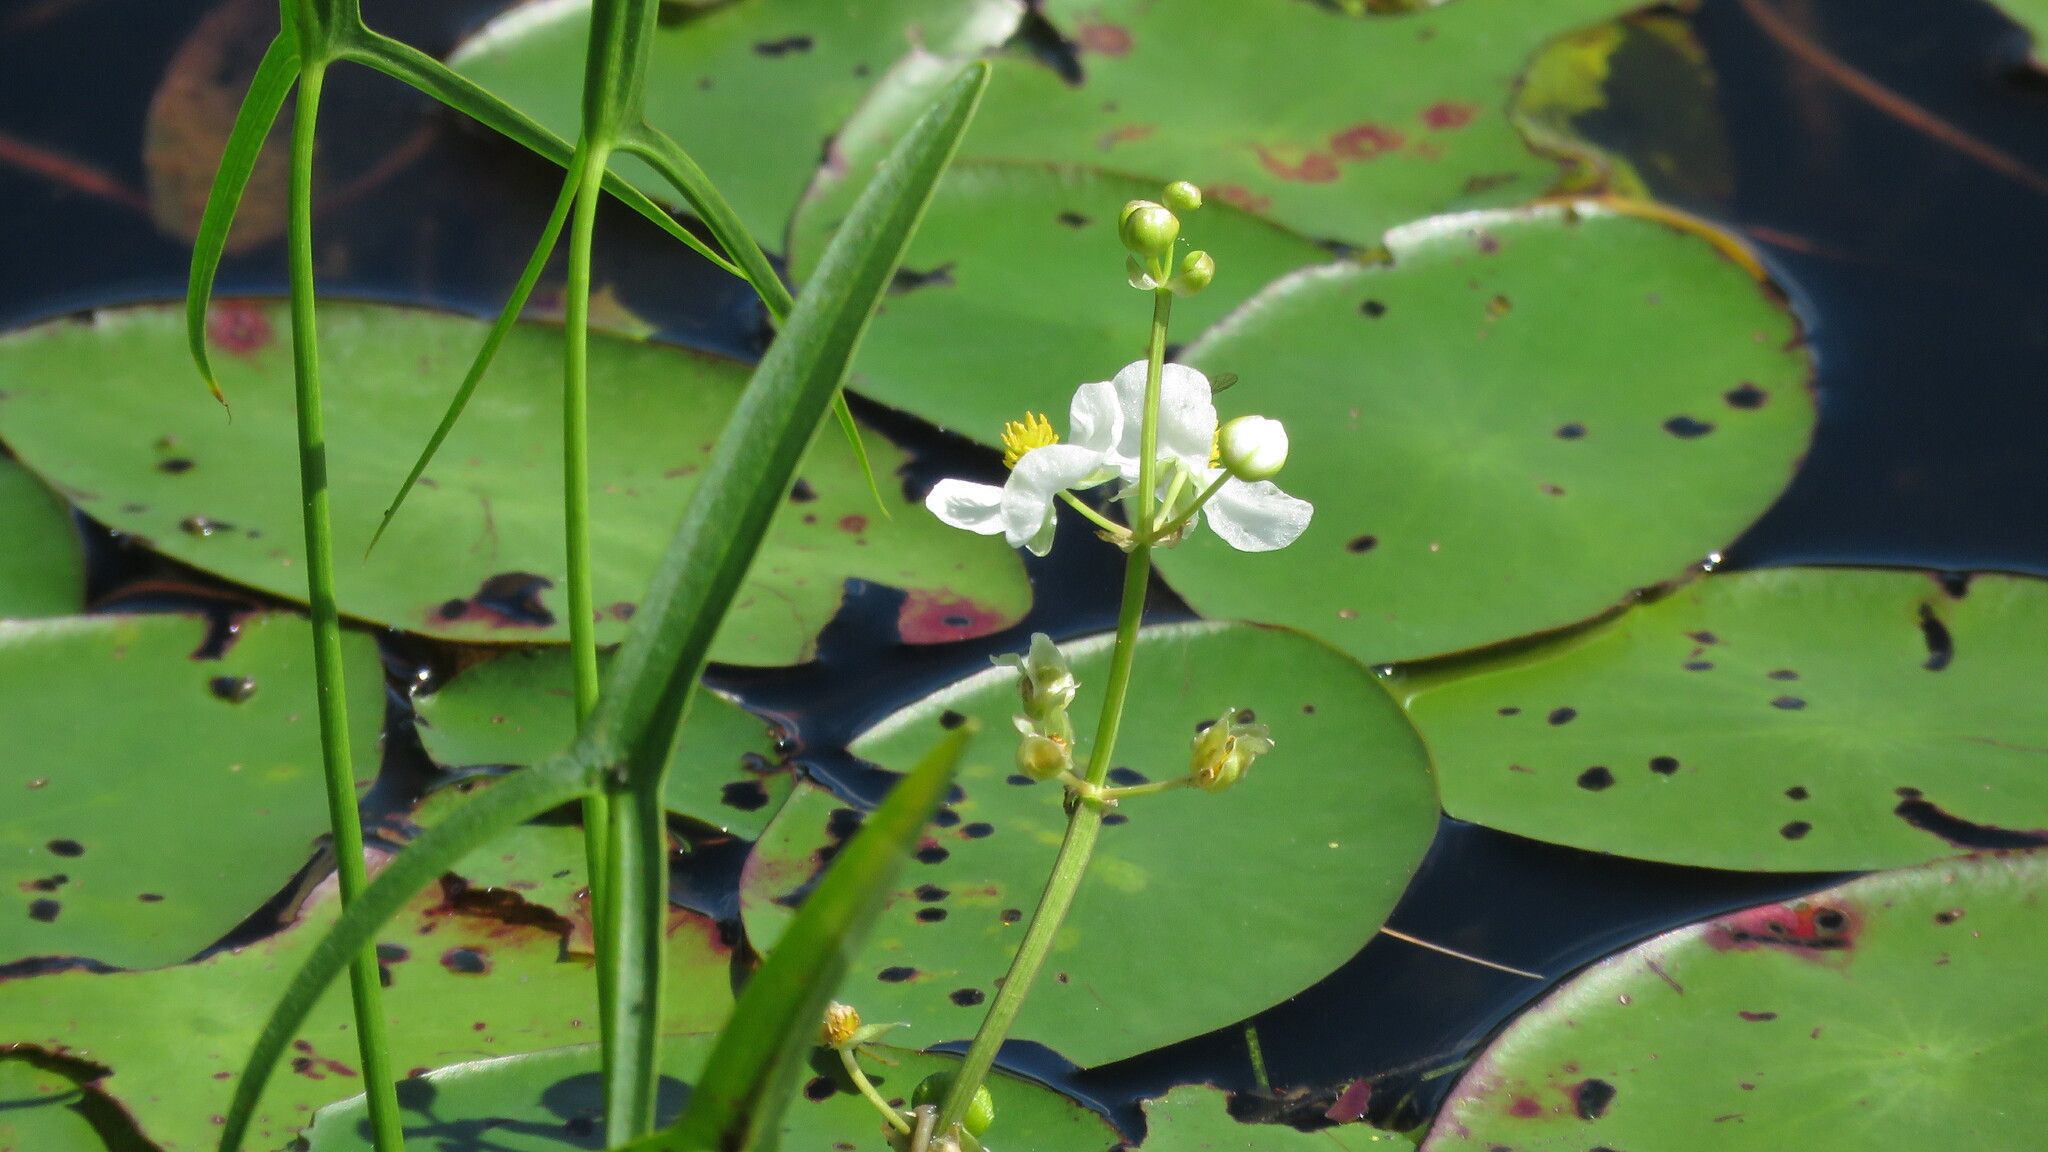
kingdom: Plantae
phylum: Tracheophyta
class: Liliopsida
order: Alismatales
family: Alismataceae
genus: Sagittaria
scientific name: Sagittaria latifolia
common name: Duck-potato
